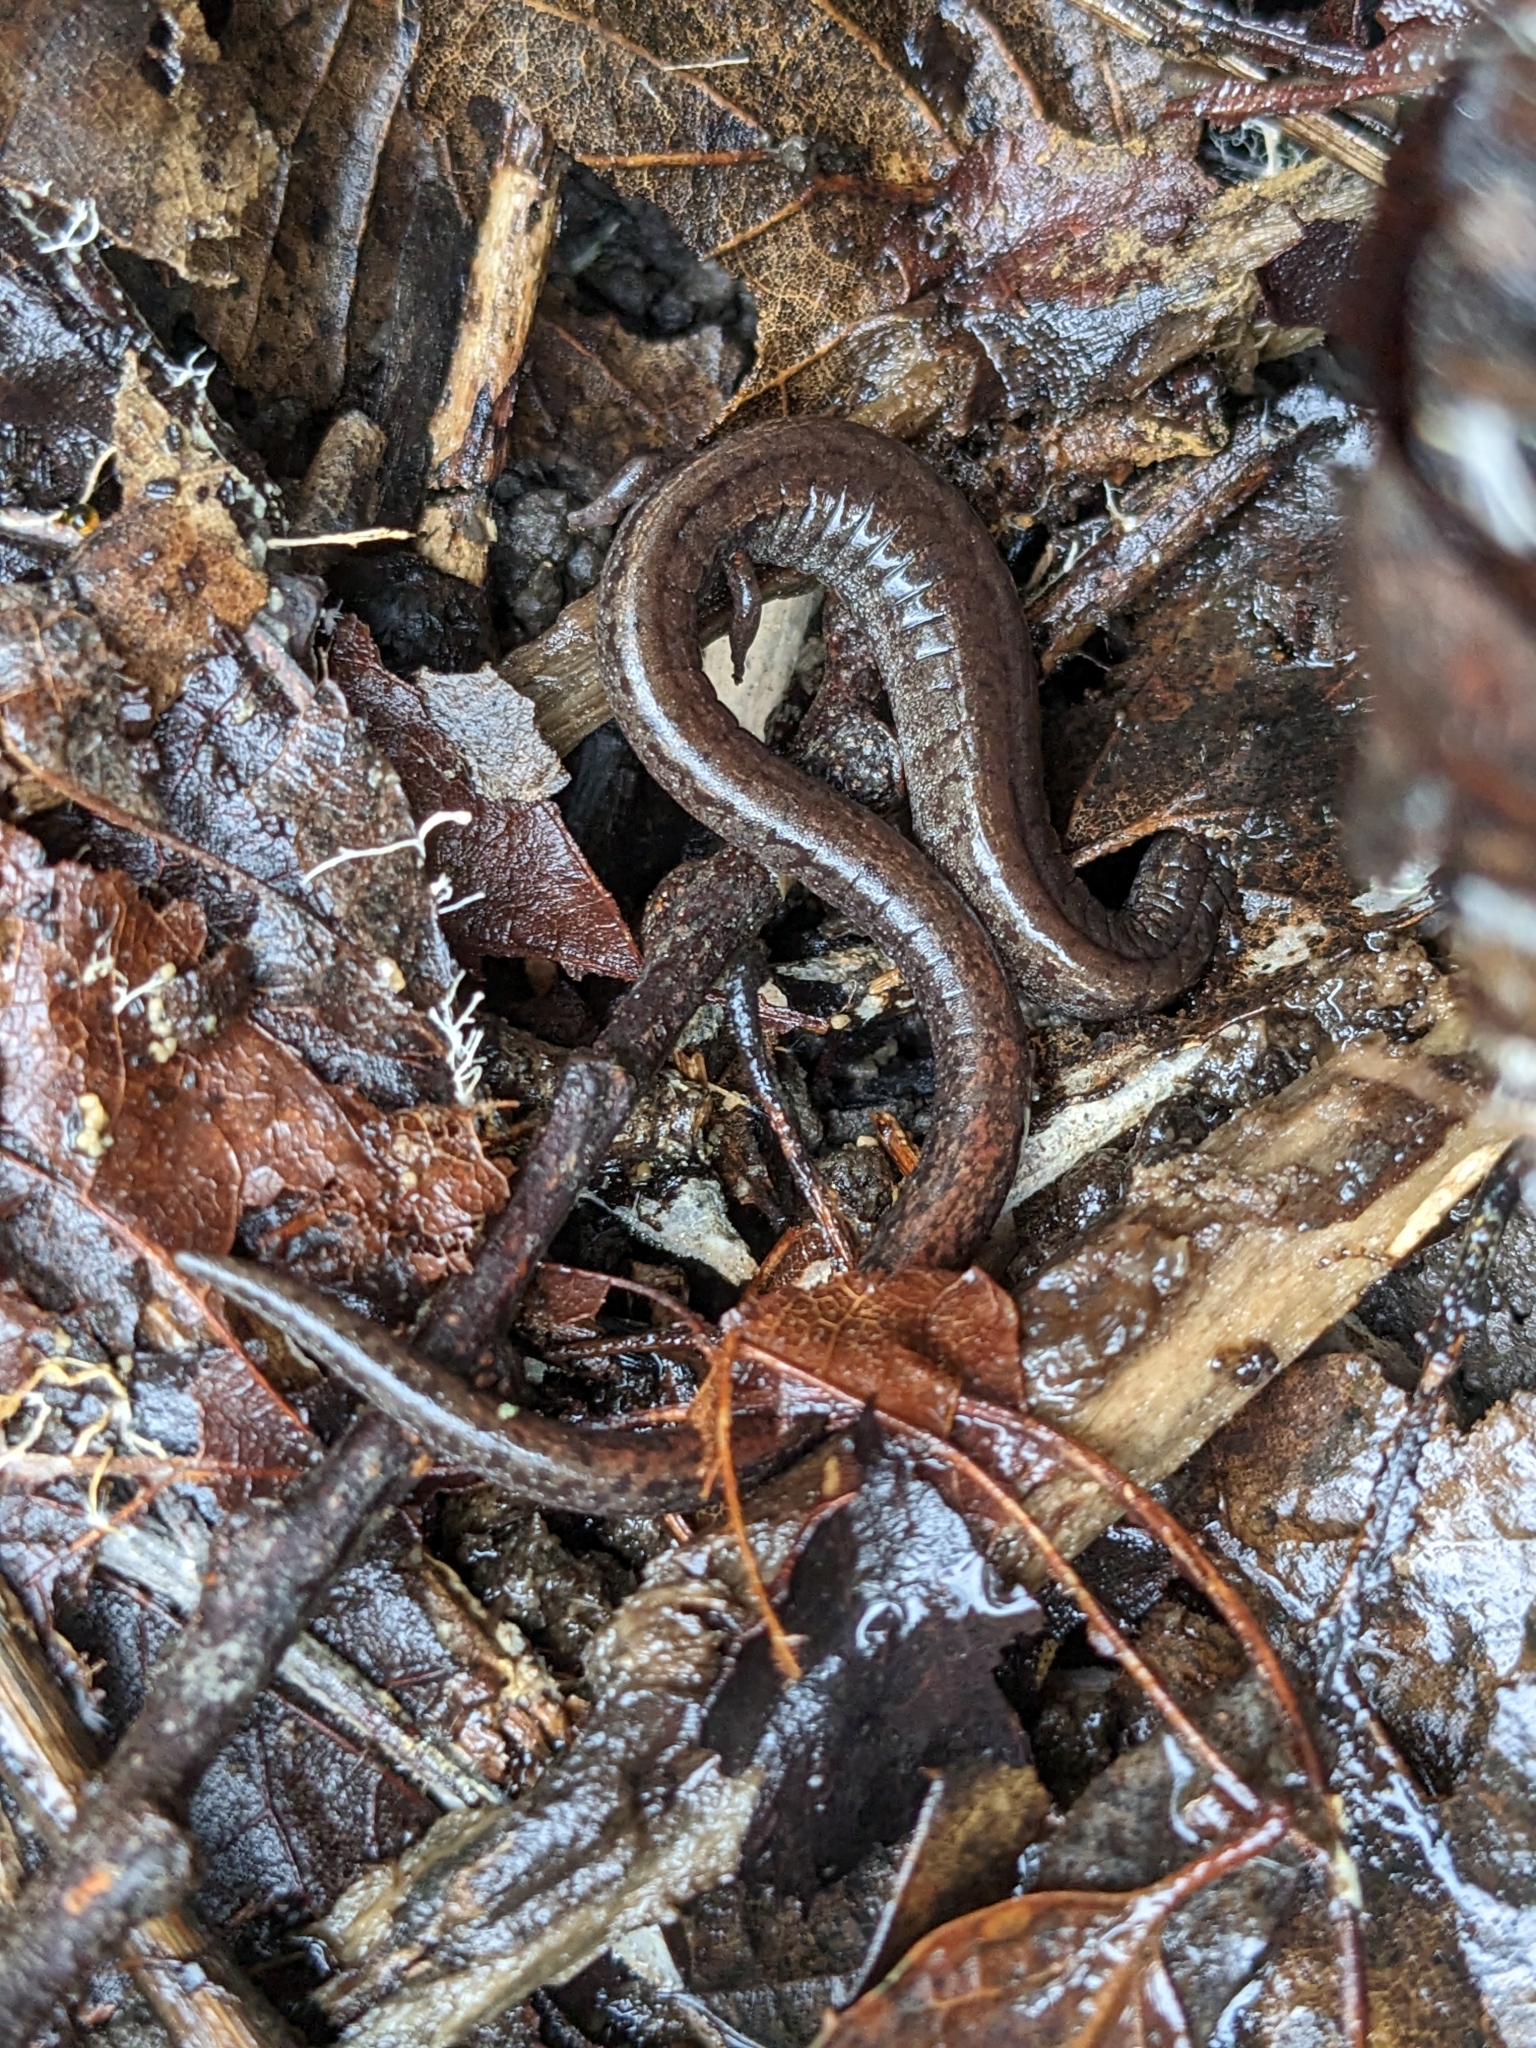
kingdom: Animalia
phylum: Chordata
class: Amphibia
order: Caudata
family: Plethodontidae
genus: Batrachoseps
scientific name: Batrachoseps attenuatus
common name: California slender salamander
